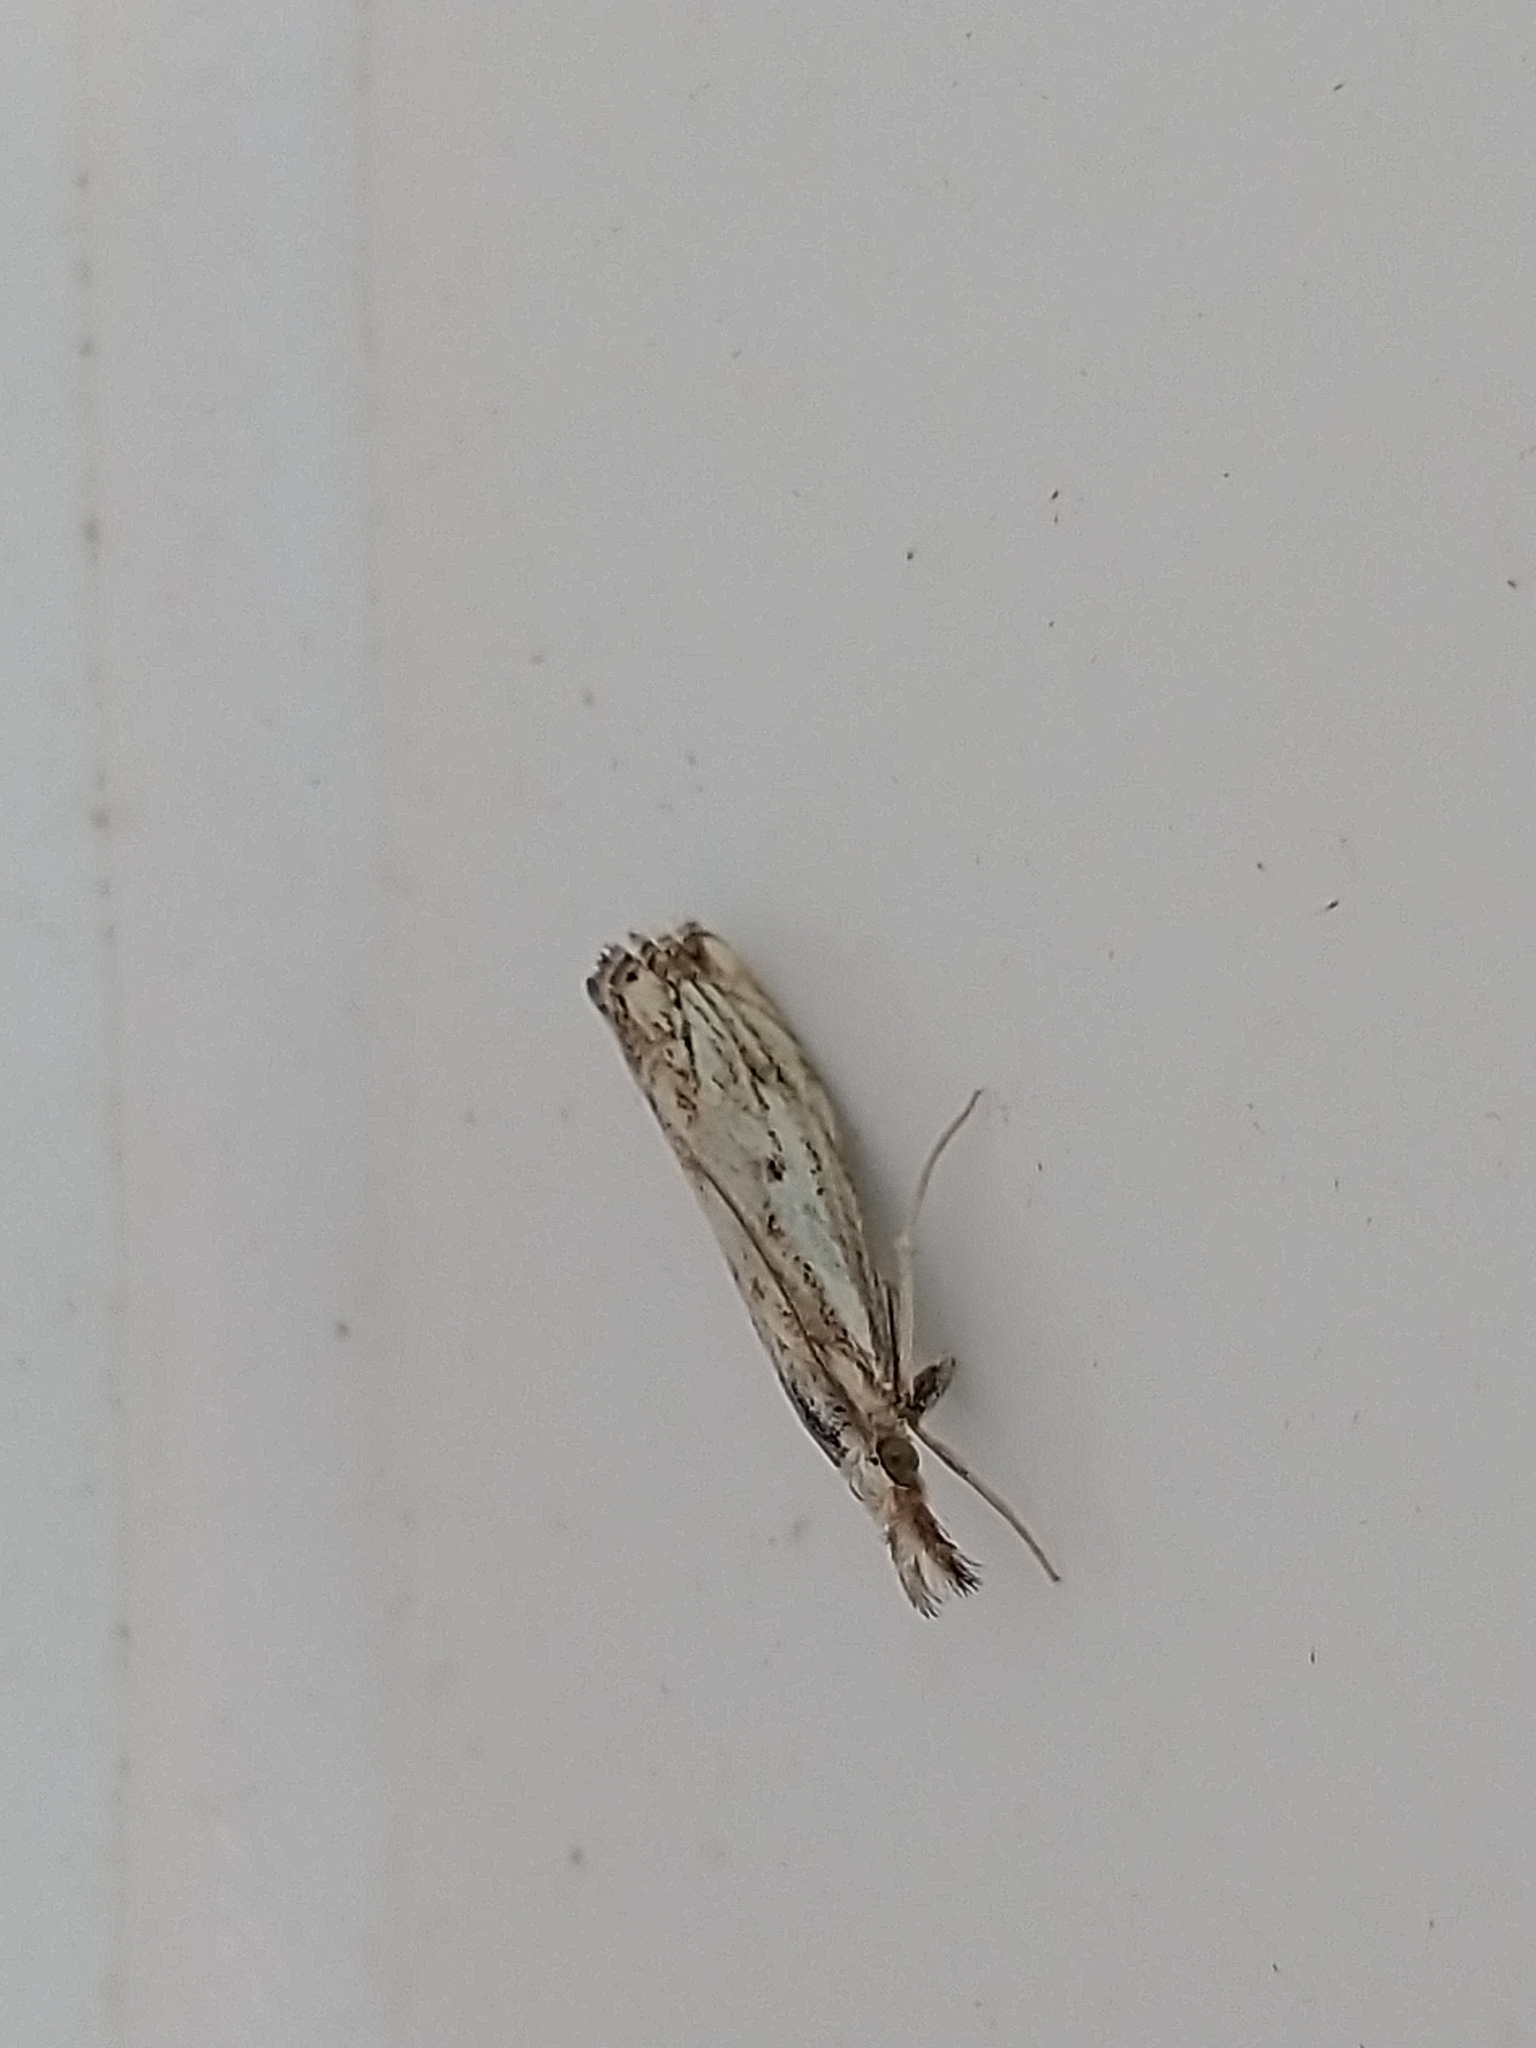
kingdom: Animalia
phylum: Arthropoda
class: Insecta
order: Lepidoptera
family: Crambidae
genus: Catoptria
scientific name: Catoptria falsella
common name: Chequered grass-veneer
